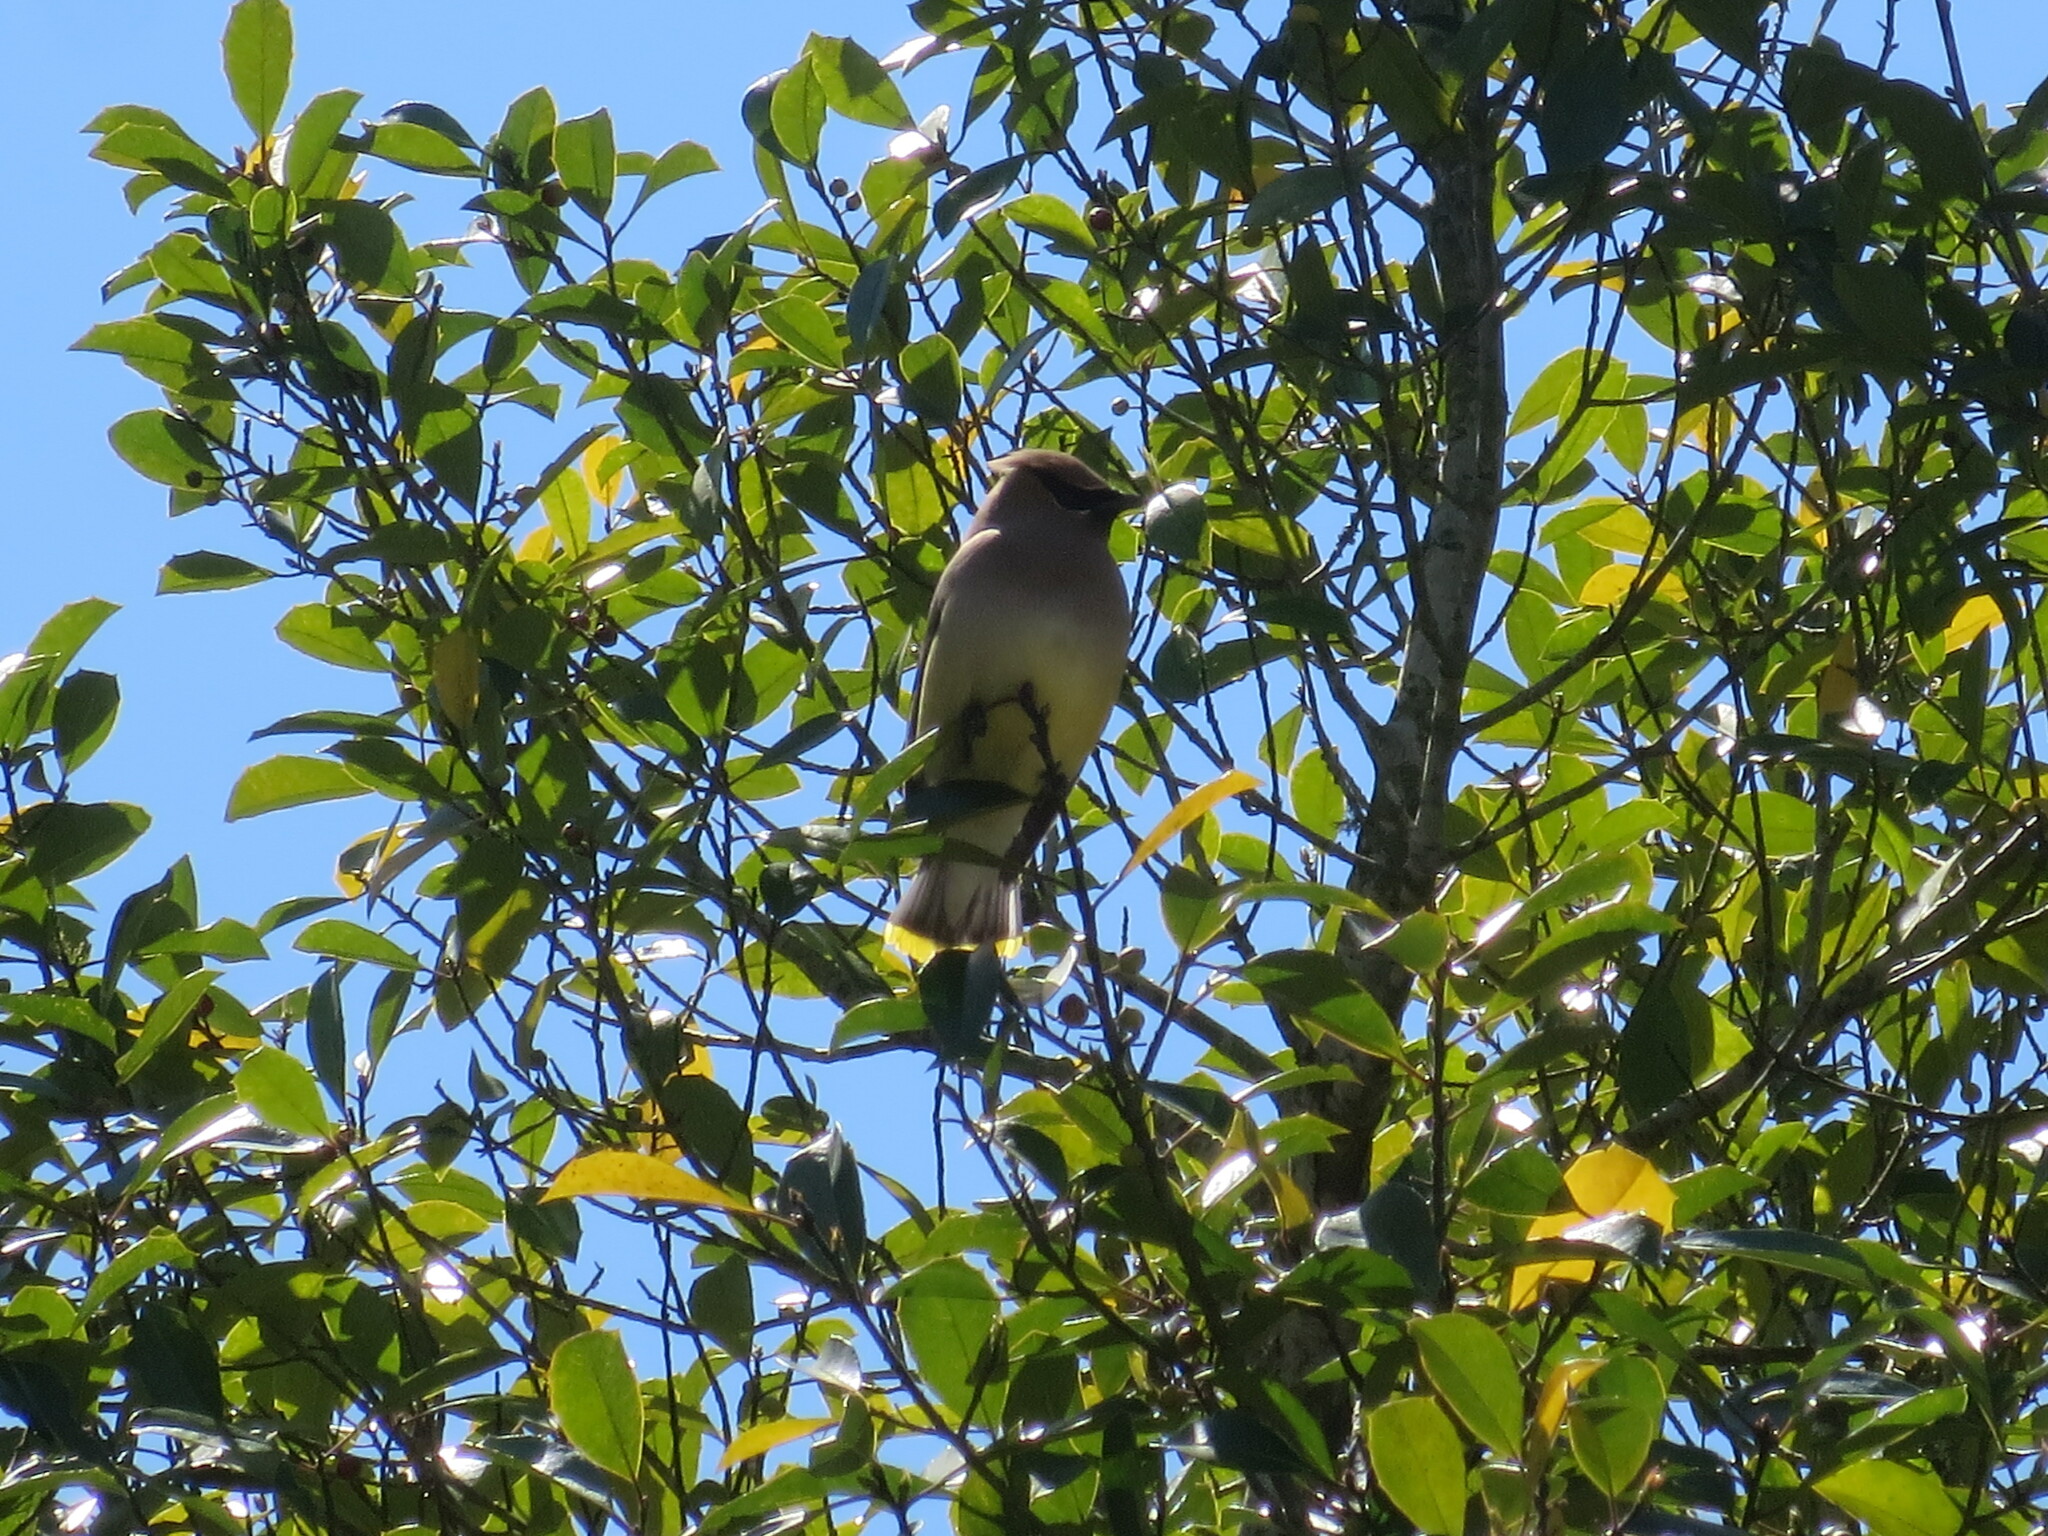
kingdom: Animalia
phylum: Chordata
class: Aves
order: Passeriformes
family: Bombycillidae
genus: Bombycilla
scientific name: Bombycilla cedrorum
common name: Cedar waxwing
